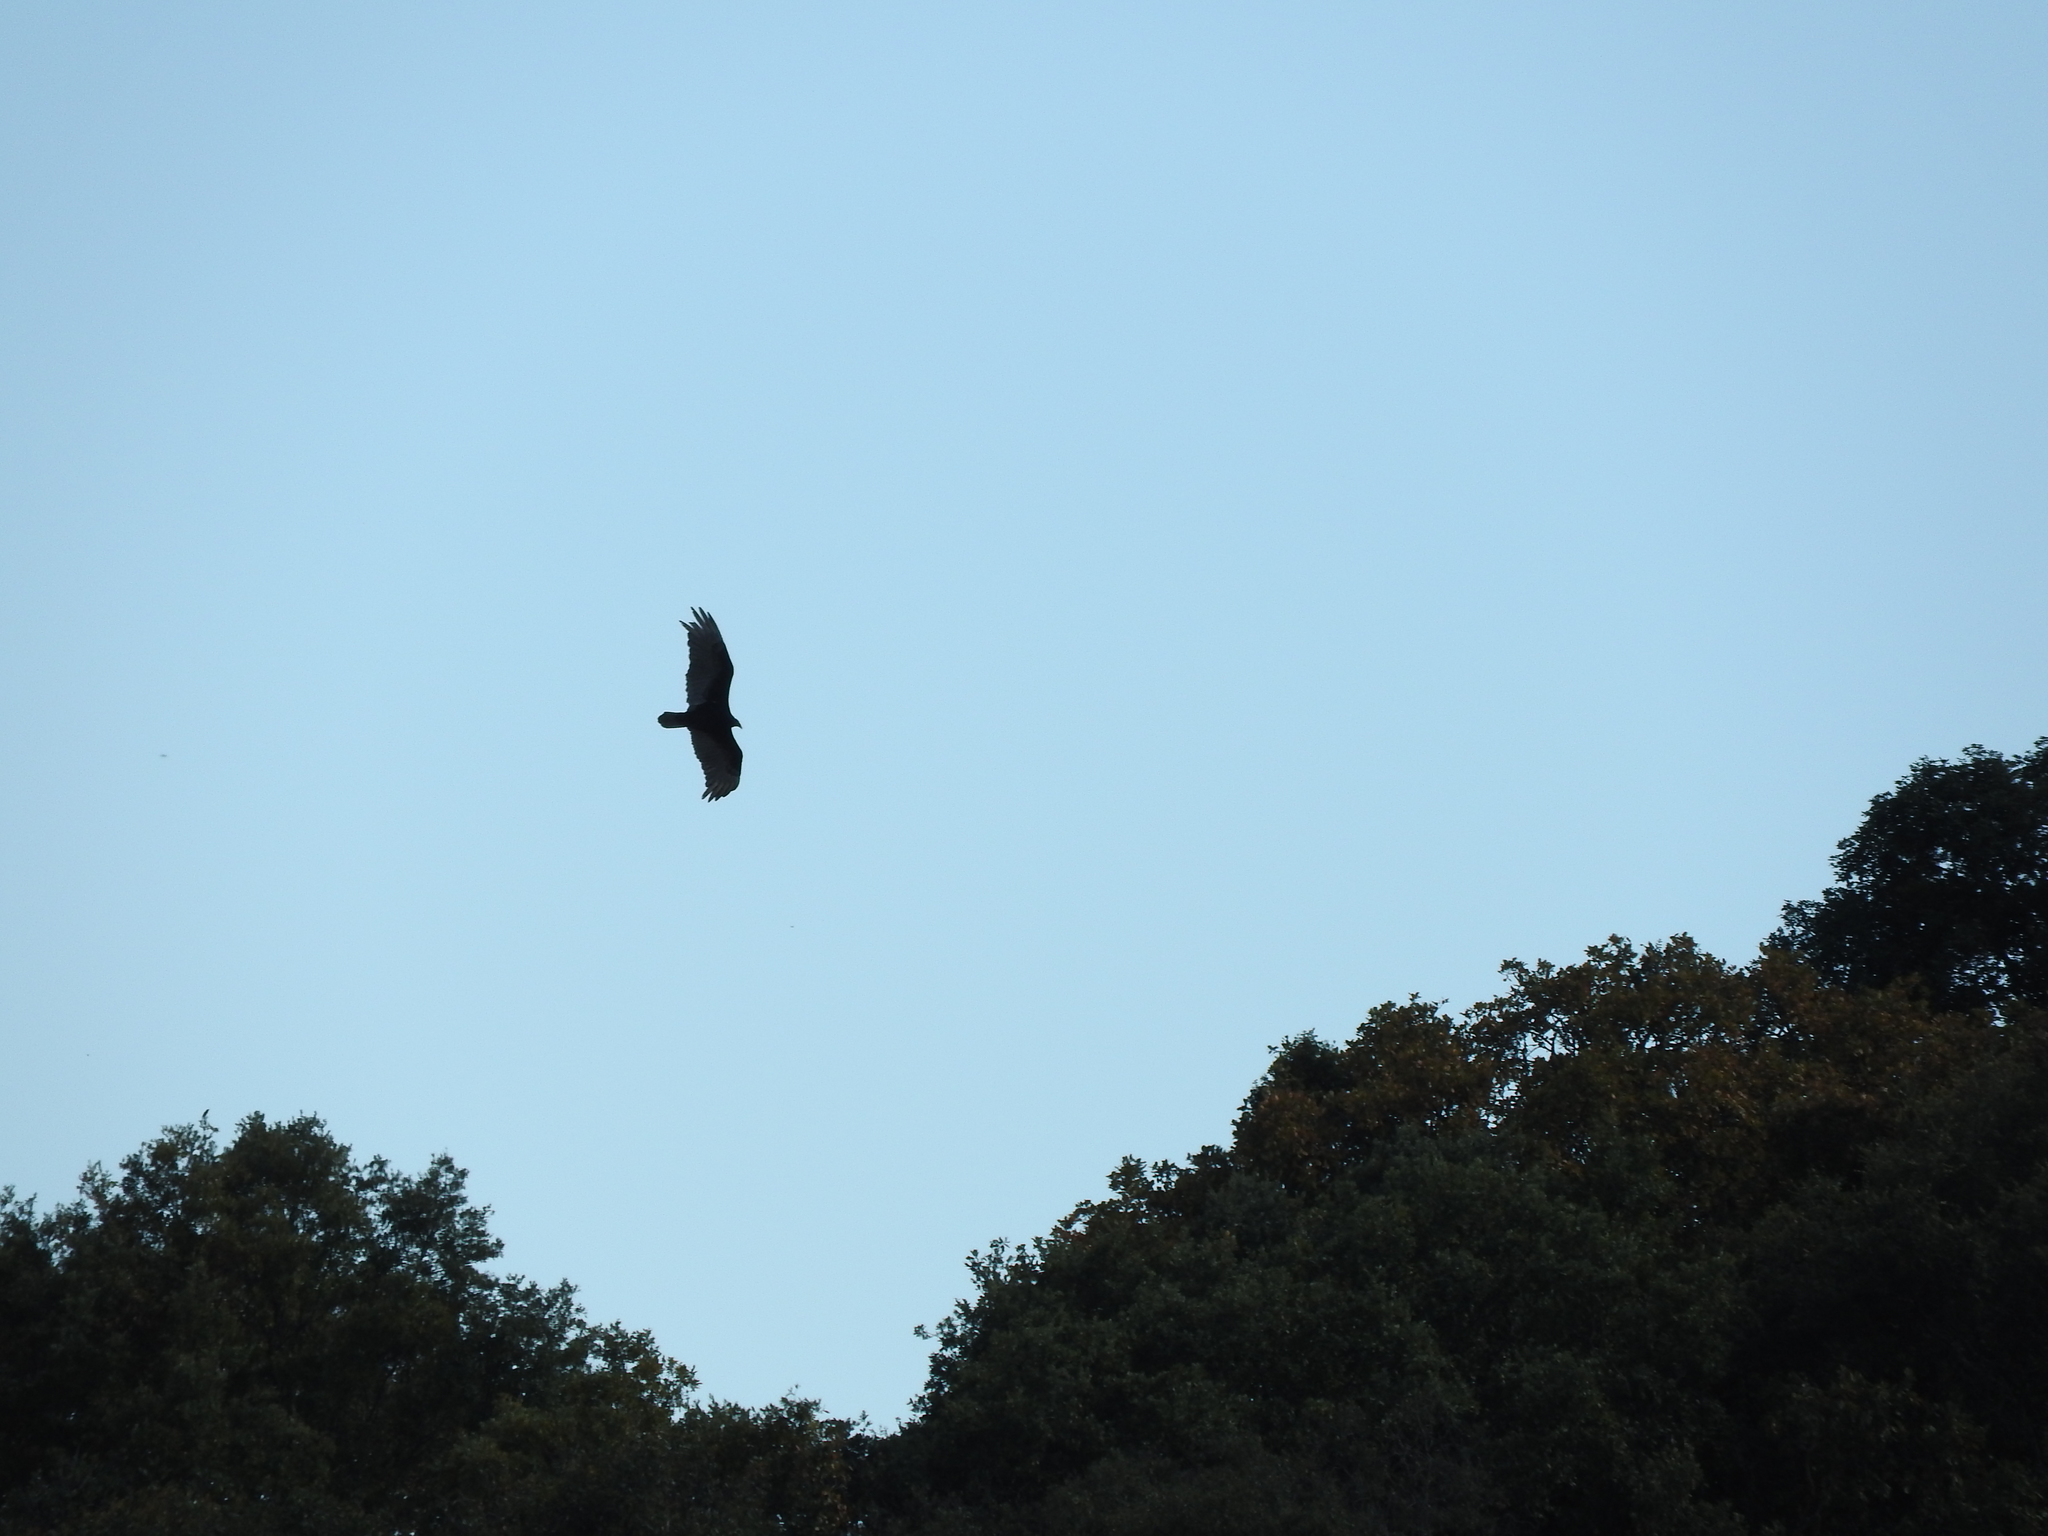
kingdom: Animalia
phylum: Chordata
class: Aves
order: Accipitriformes
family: Cathartidae
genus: Cathartes
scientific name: Cathartes aura
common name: Turkey vulture
